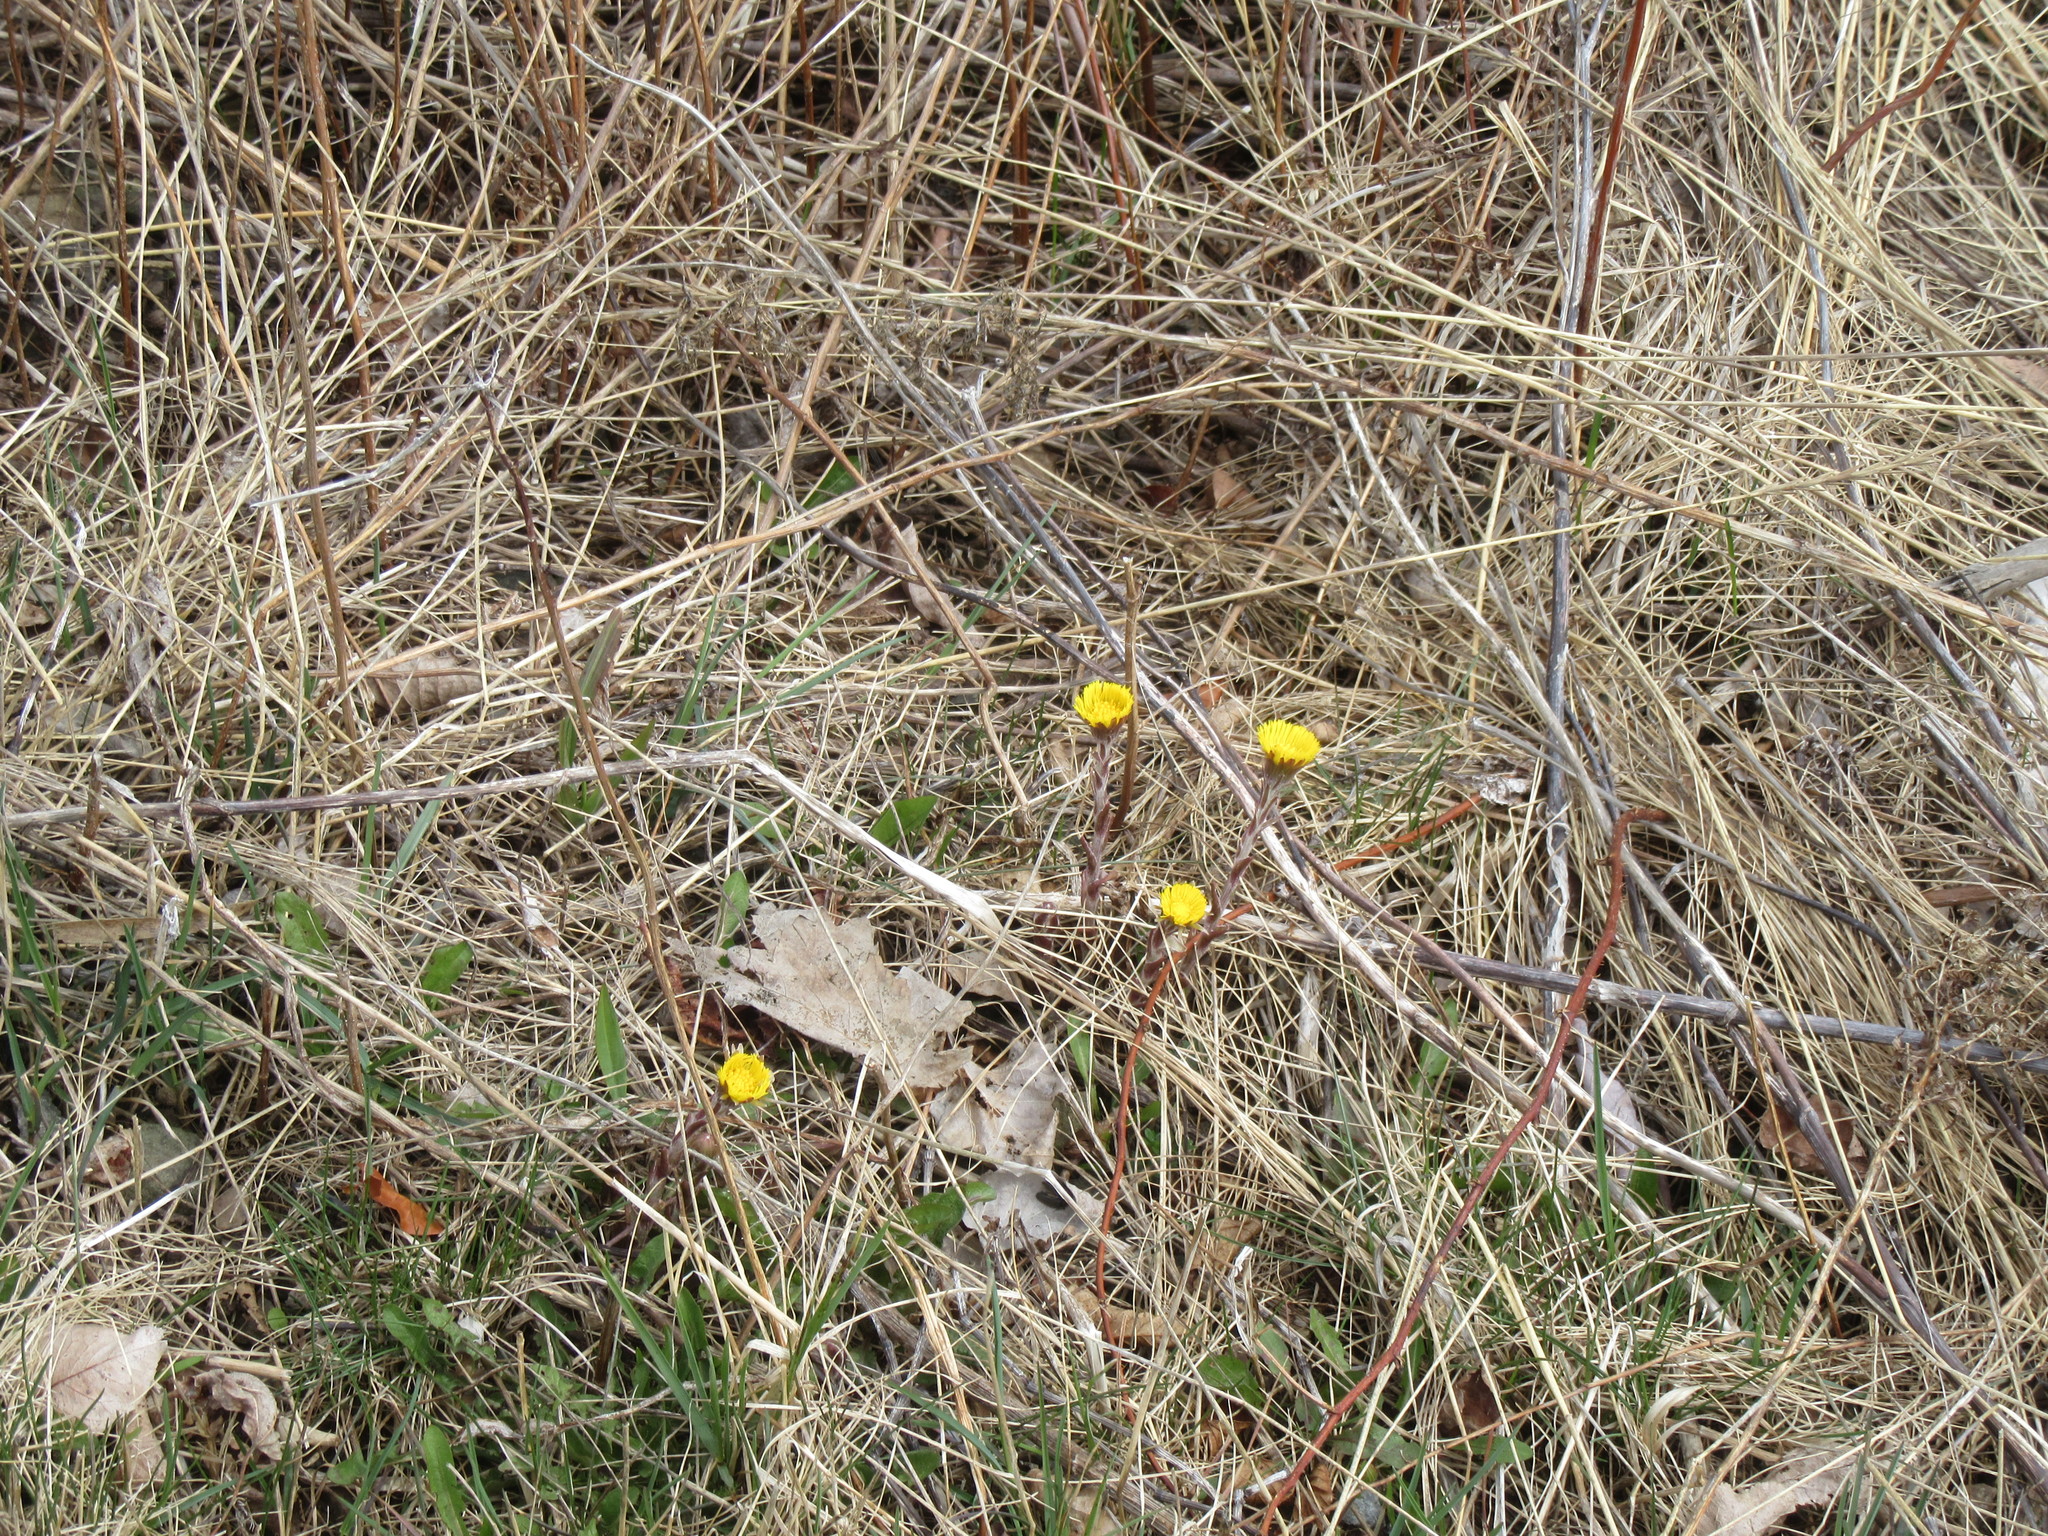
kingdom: Plantae
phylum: Tracheophyta
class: Magnoliopsida
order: Asterales
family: Asteraceae
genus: Tussilago
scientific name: Tussilago farfara
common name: Coltsfoot
